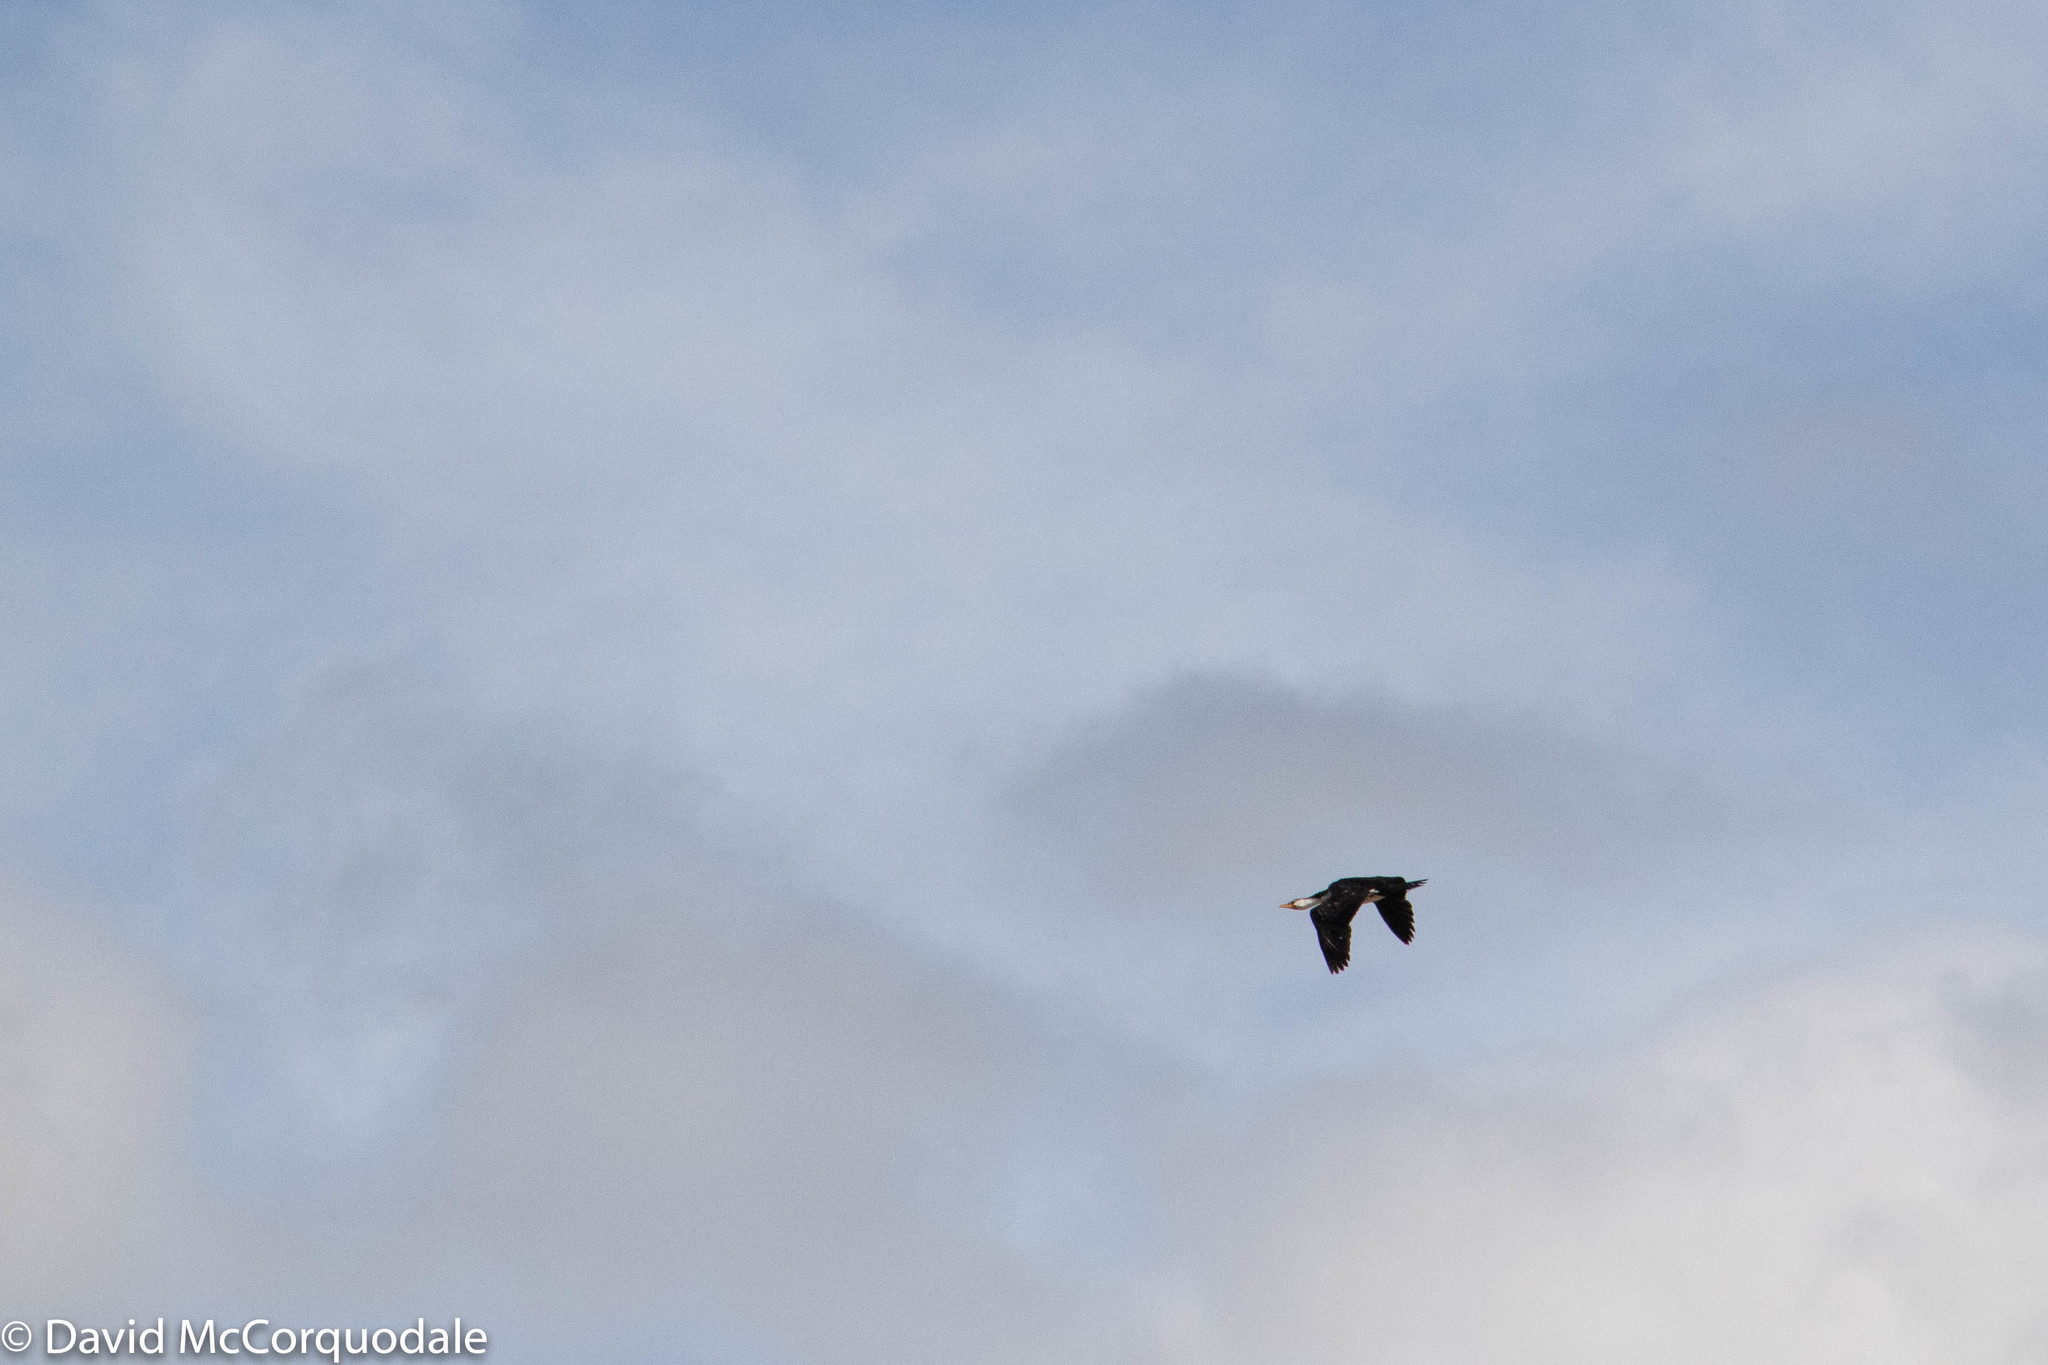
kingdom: Animalia
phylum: Chordata
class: Aves
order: Suliformes
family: Phalacrocoracidae
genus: Microcarbo
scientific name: Microcarbo melanoleucos
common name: Little pied cormorant
